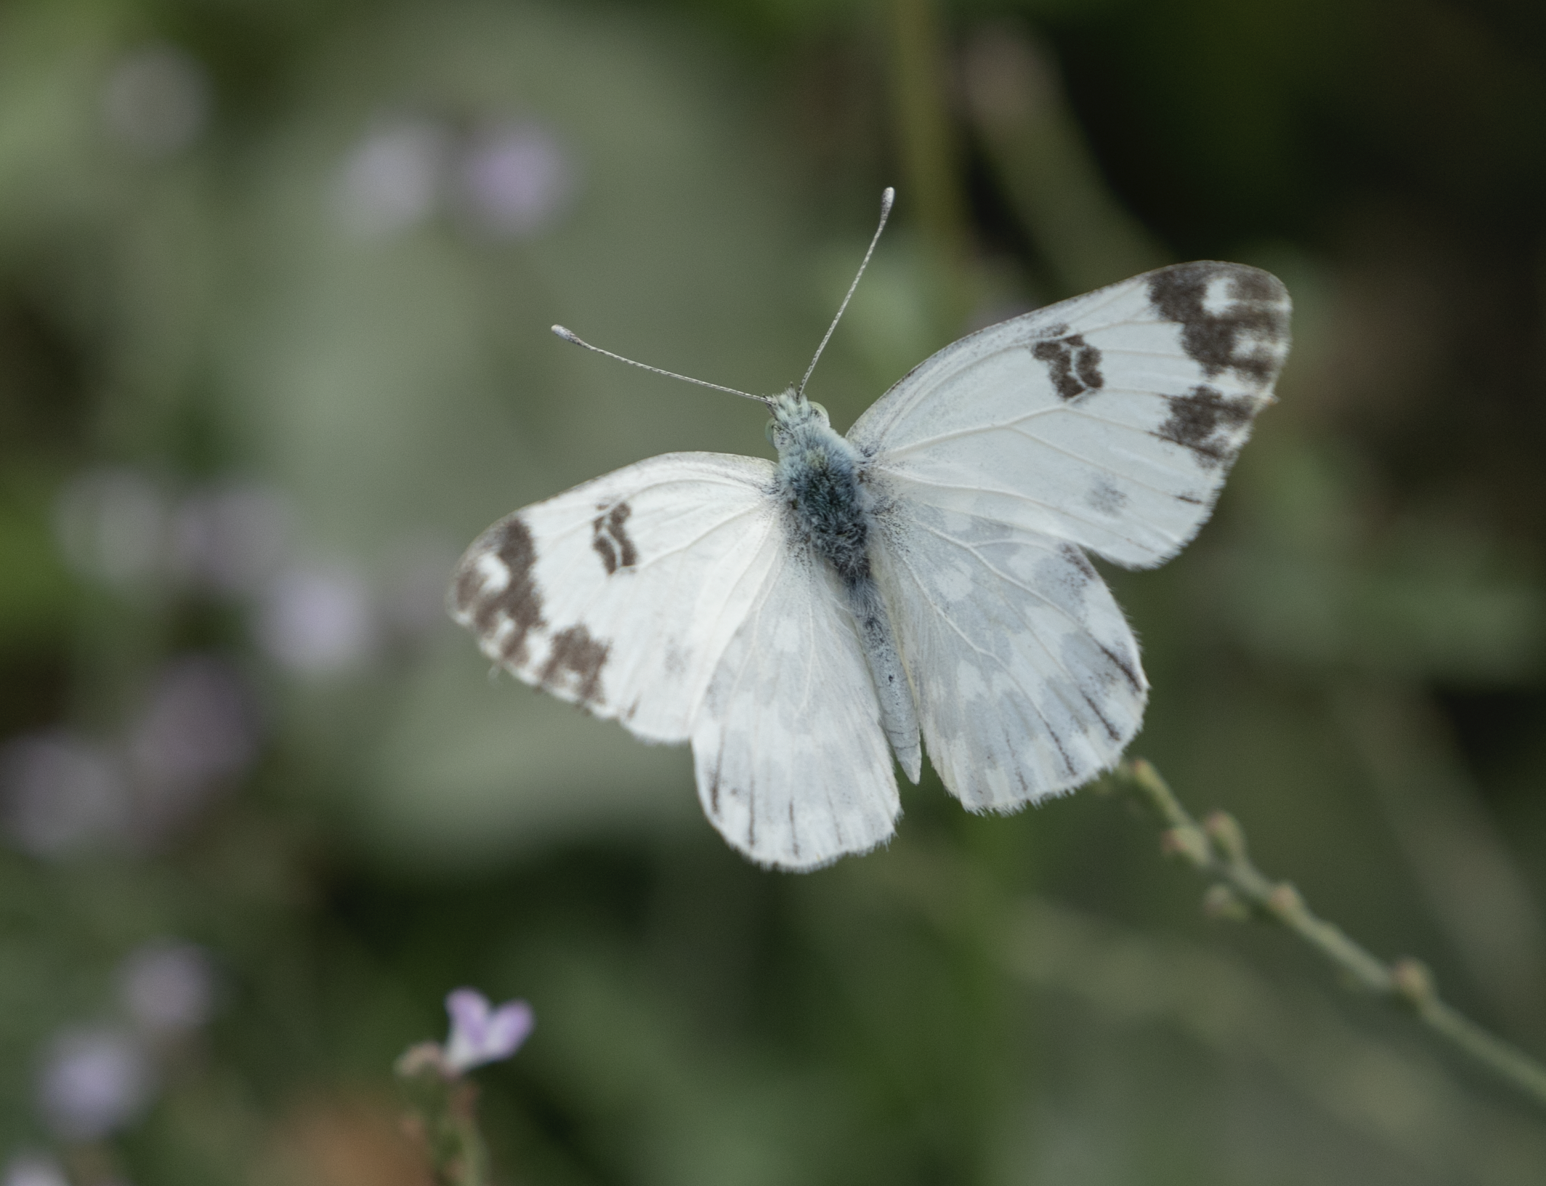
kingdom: Animalia
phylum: Arthropoda
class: Insecta
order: Lepidoptera
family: Pieridae
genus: Pontia
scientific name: Pontia edusa
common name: Eastern bath white
